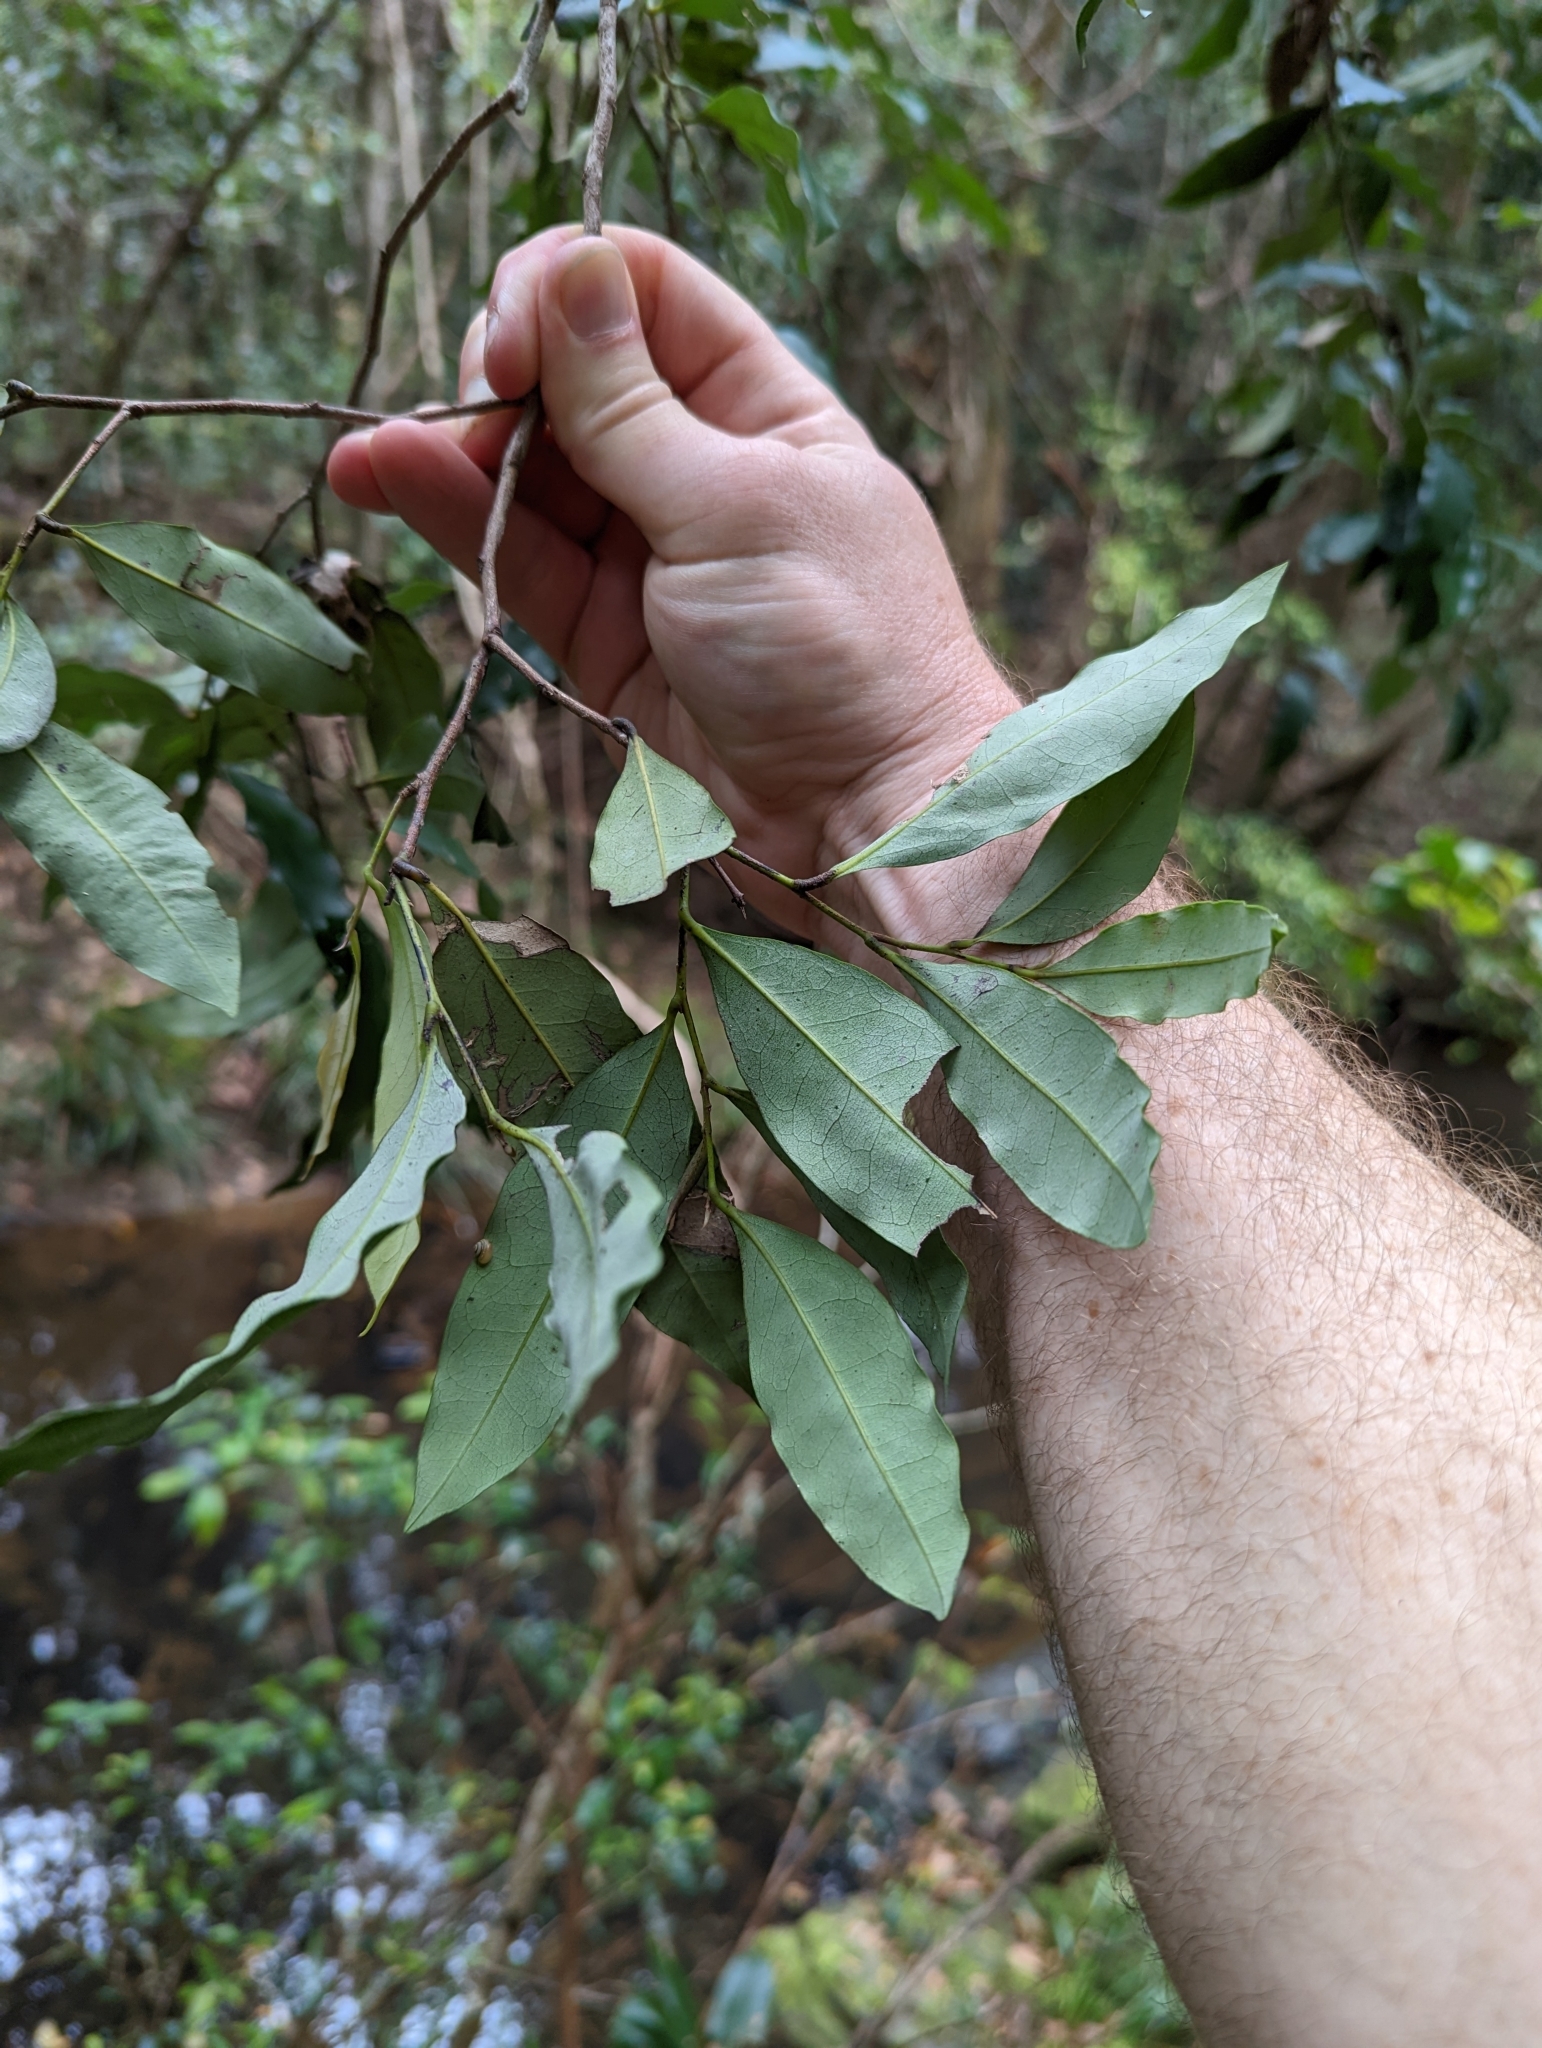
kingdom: Plantae
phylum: Tracheophyta
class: Magnoliopsida
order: Ericales
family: Ebenaceae
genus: Diospyros
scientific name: Diospyros pentamera
